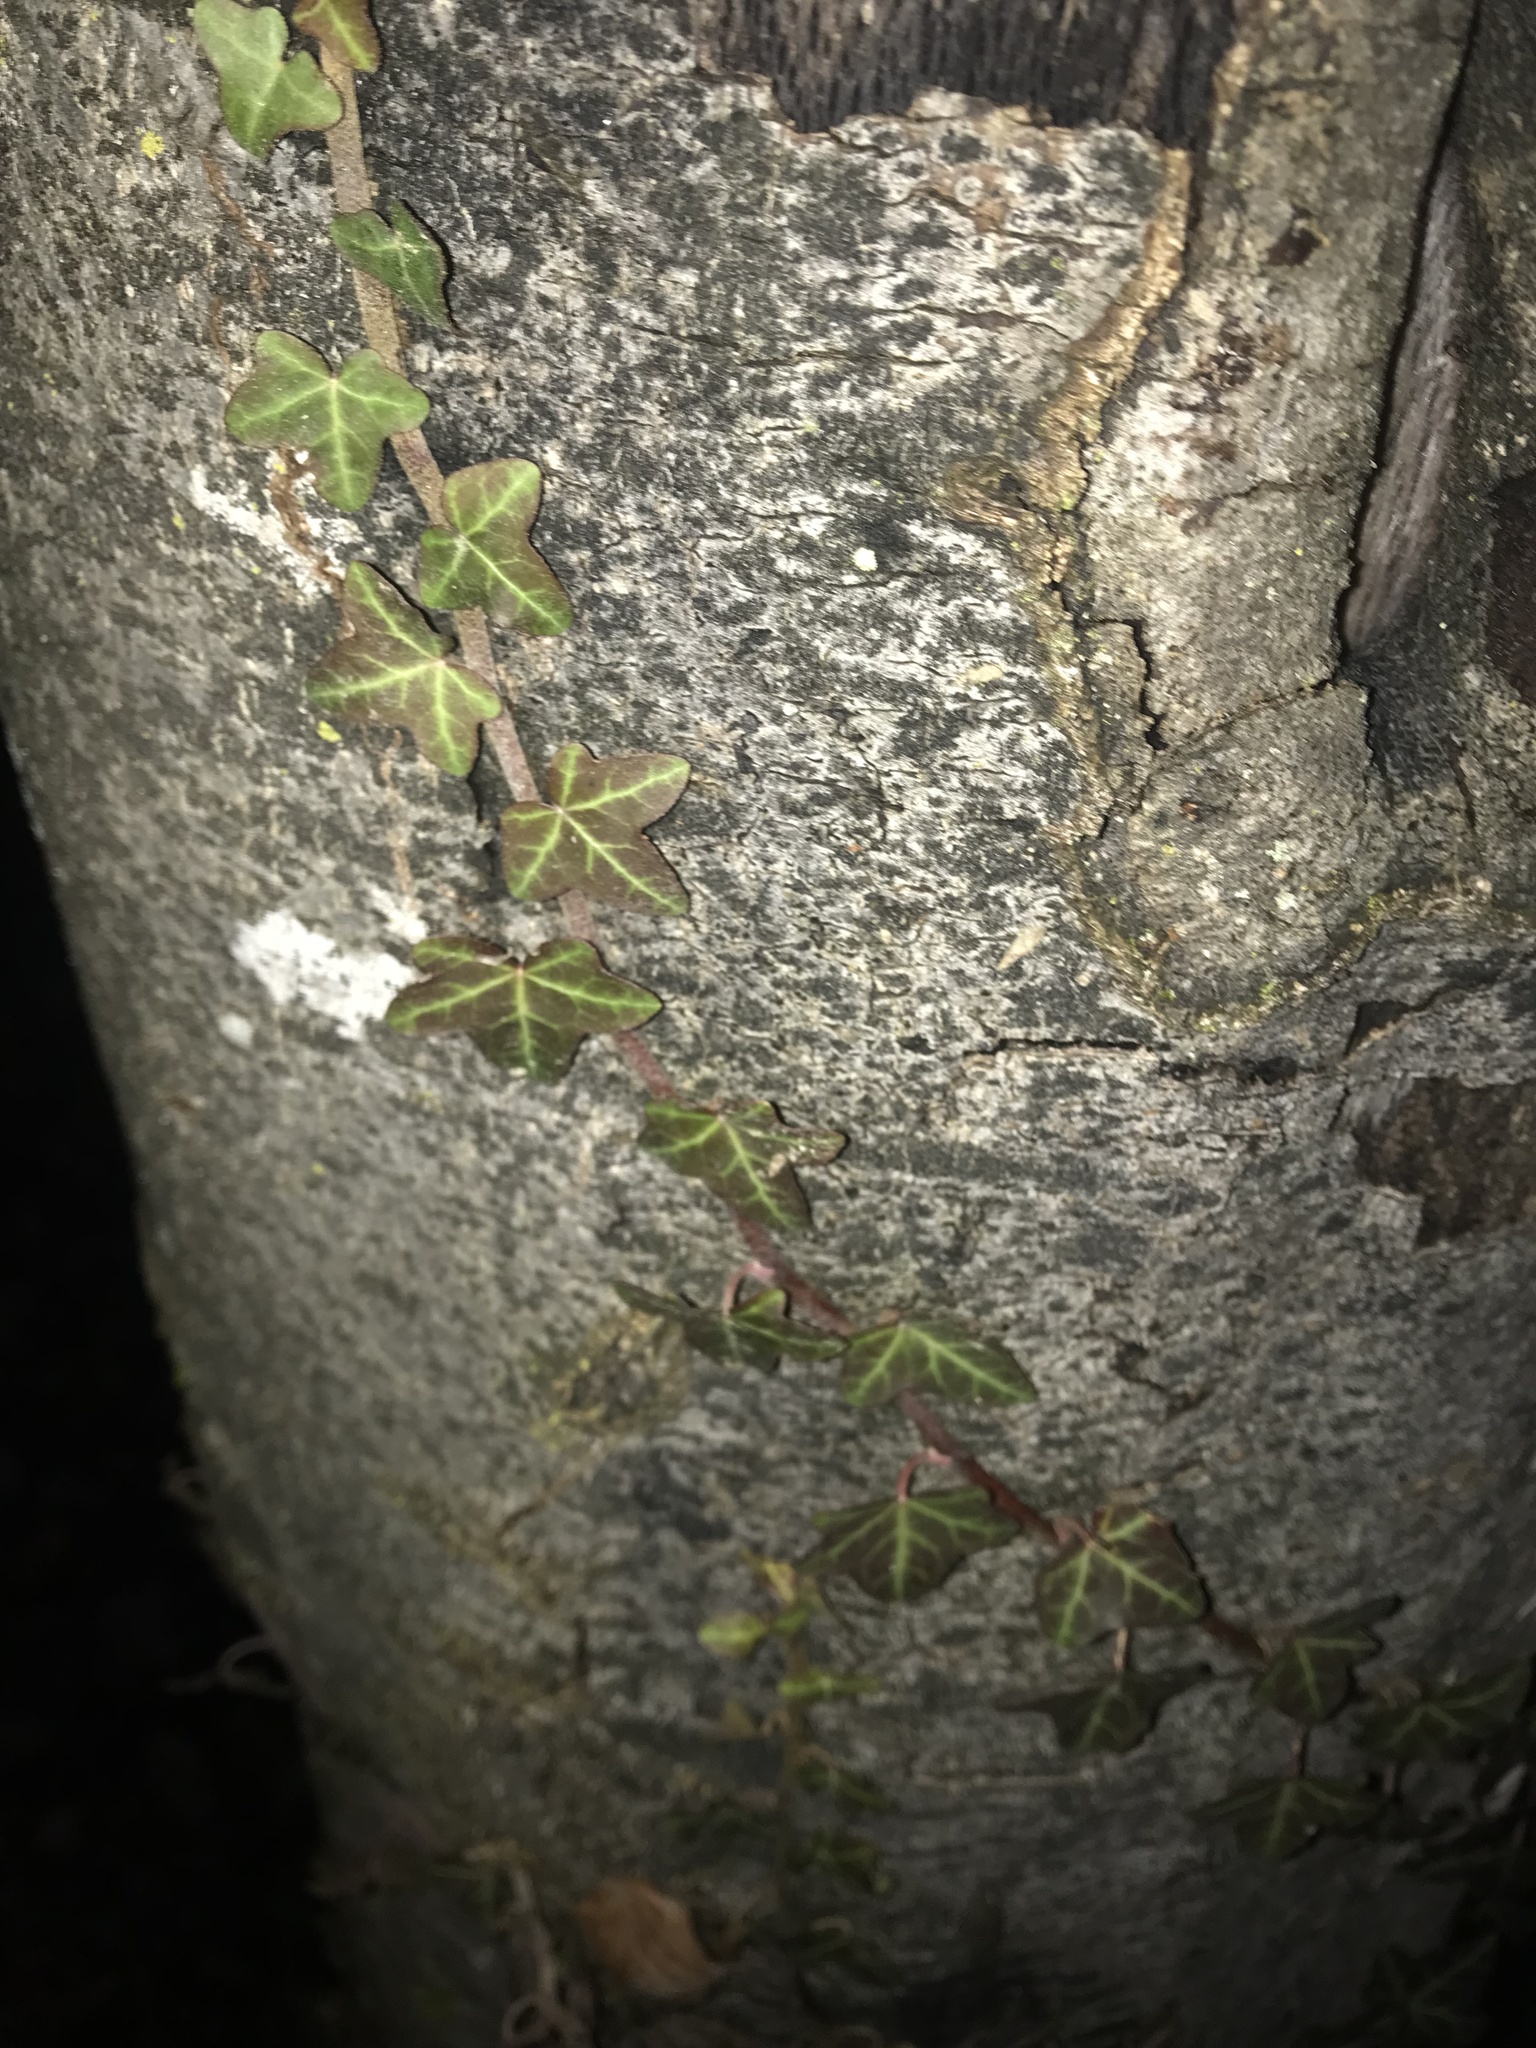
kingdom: Plantae
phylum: Tracheophyta
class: Magnoliopsida
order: Apiales
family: Araliaceae
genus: Hedera
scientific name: Hedera helix
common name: Ivy
